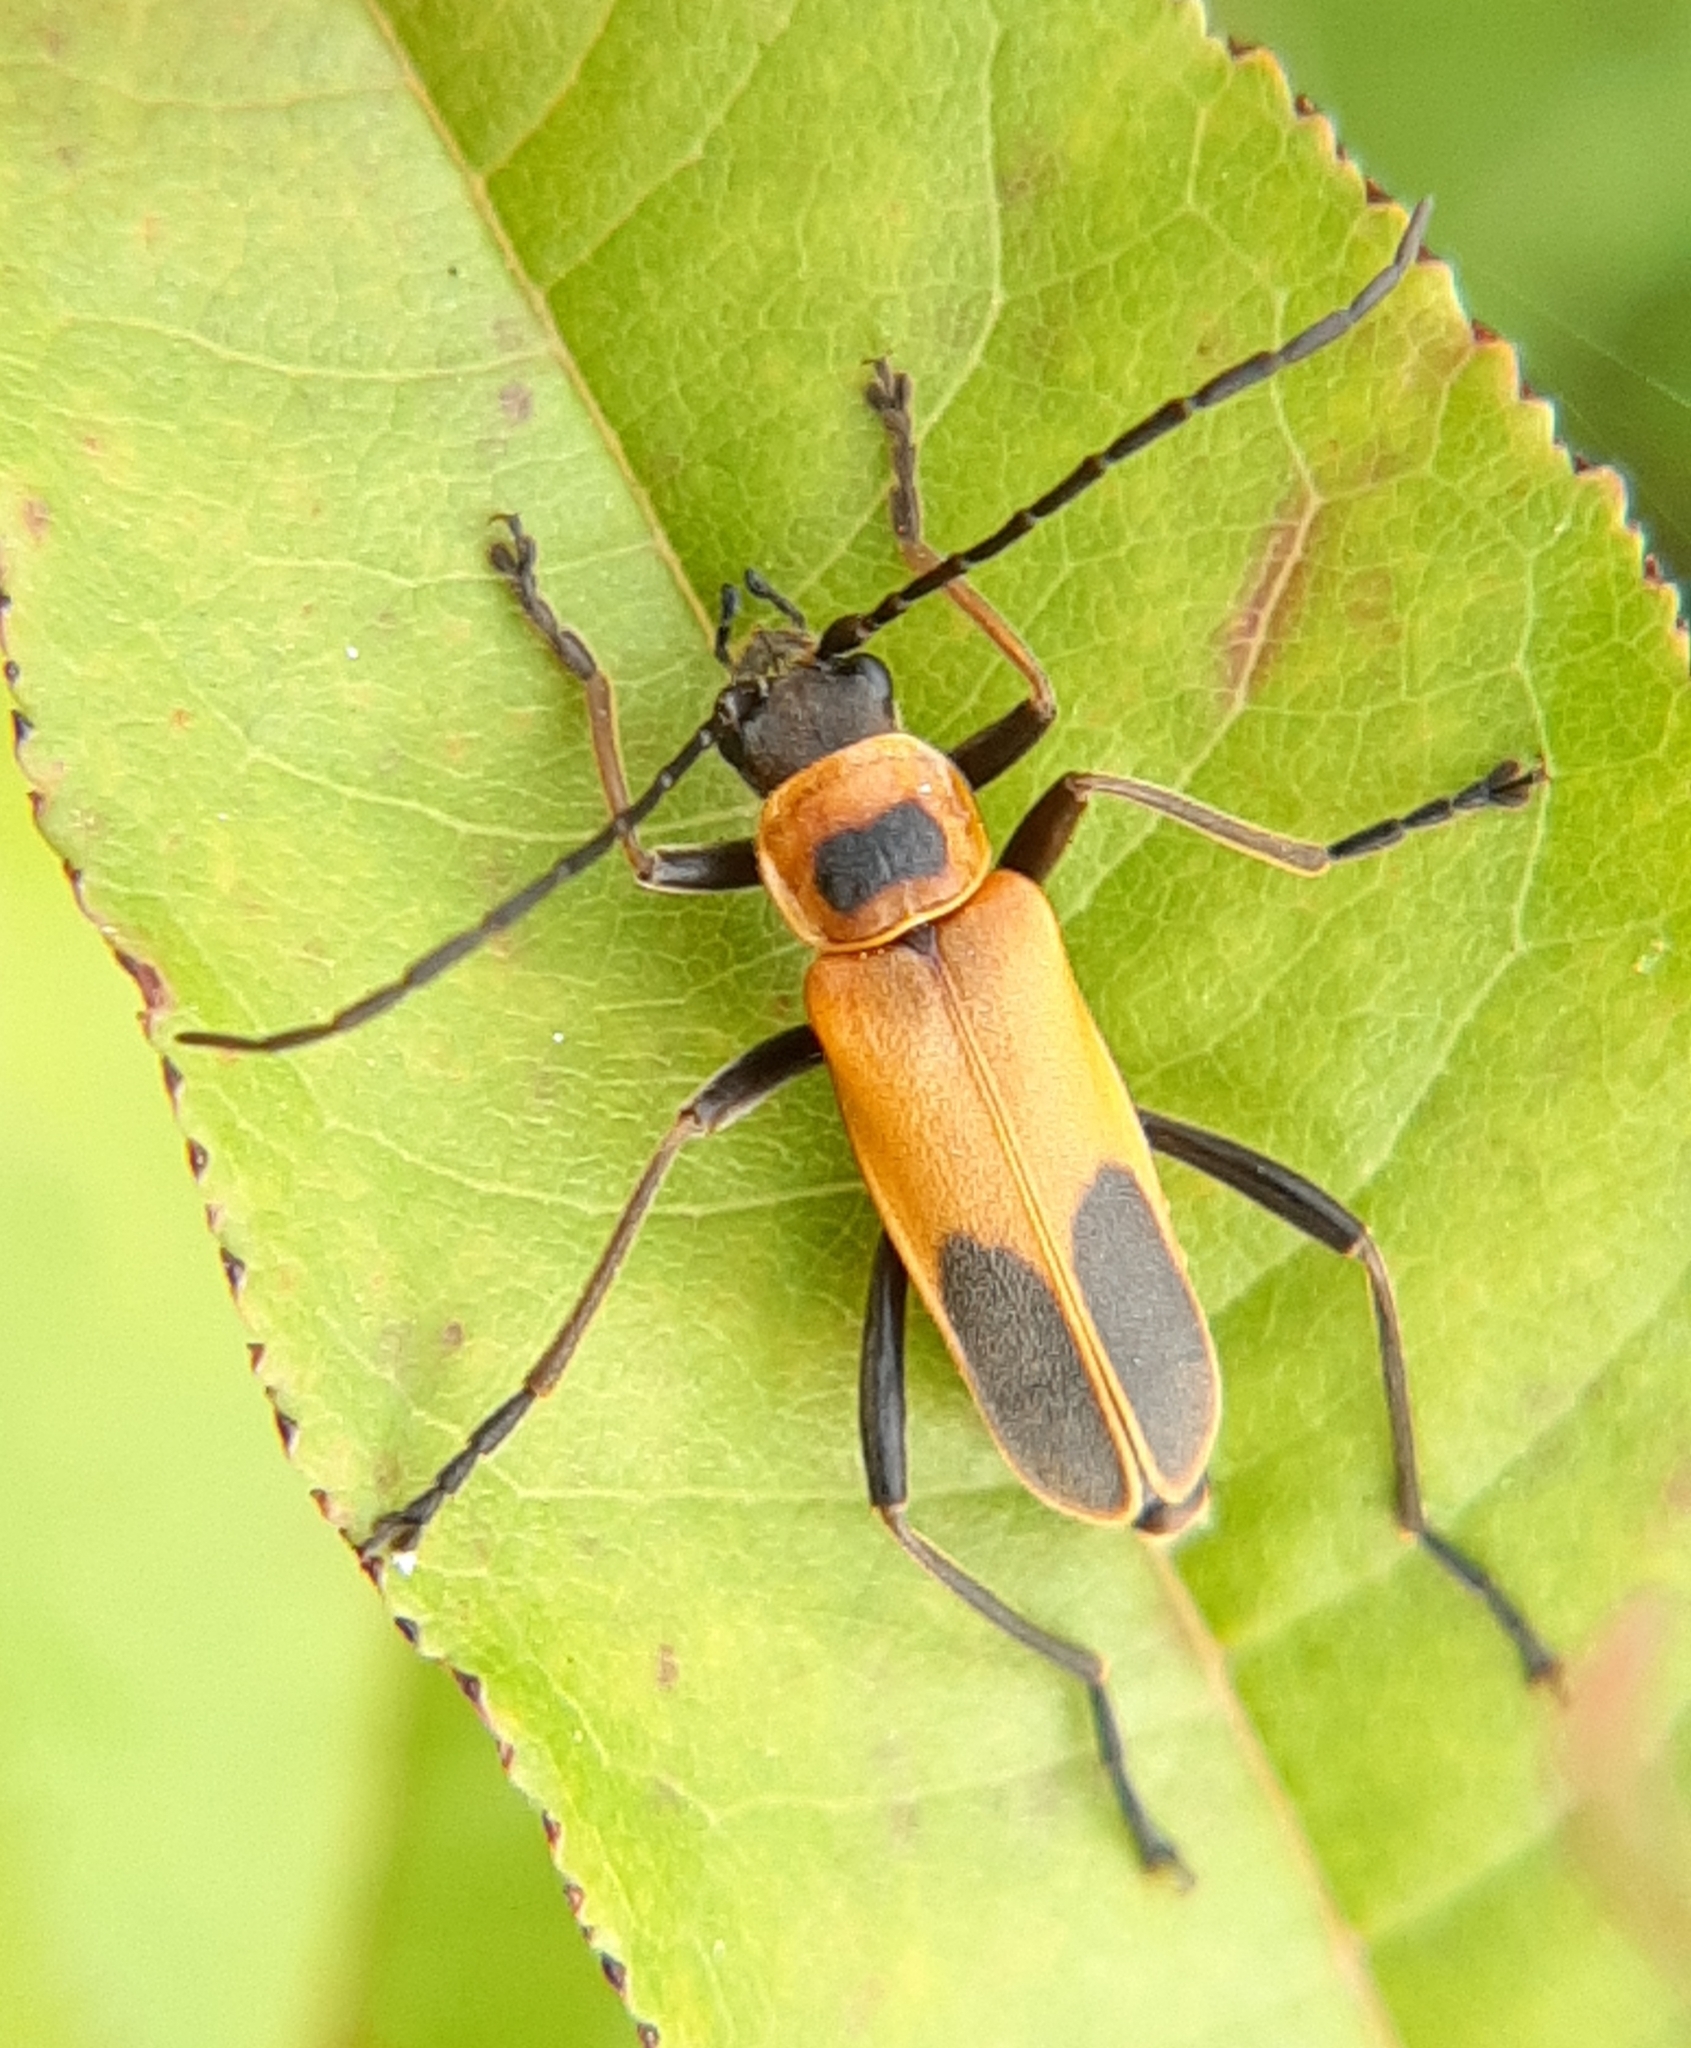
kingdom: Animalia
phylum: Arthropoda
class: Insecta
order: Coleoptera
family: Cantharidae
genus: Chauliognathus
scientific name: Chauliognathus pensylvanicus
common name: Goldenrod soldier beetle
